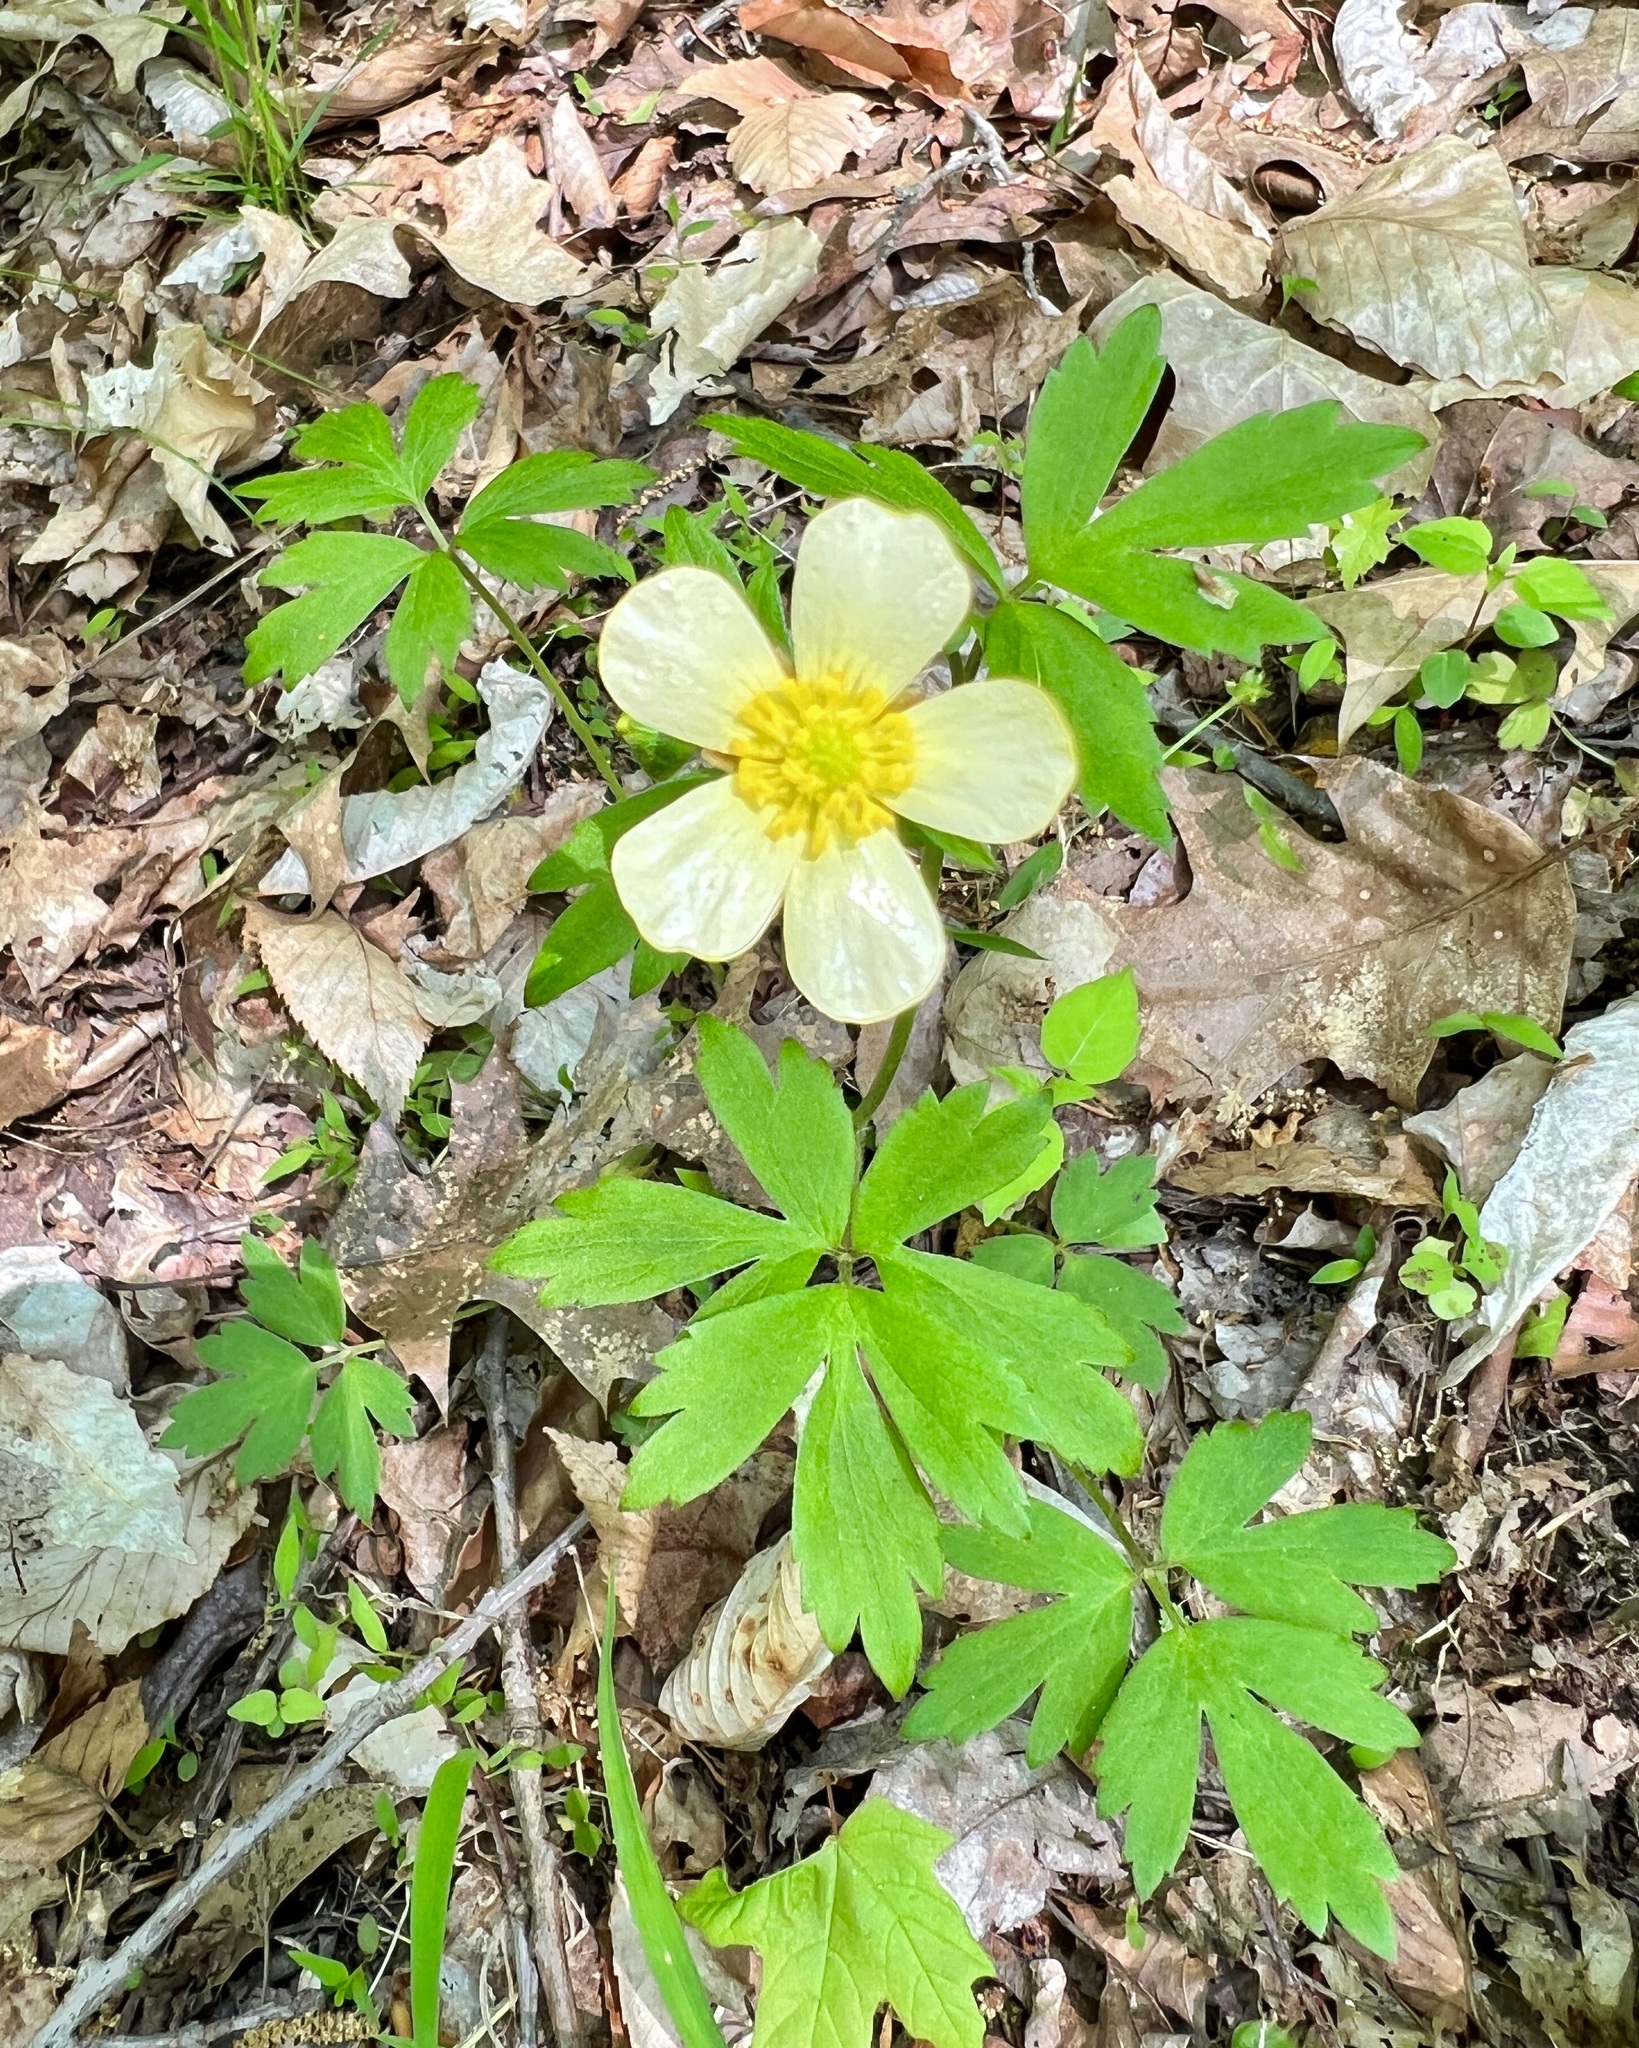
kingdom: Plantae
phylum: Tracheophyta
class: Magnoliopsida
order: Ranunculales
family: Ranunculaceae
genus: Ranunculus
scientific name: Ranunculus hispidus
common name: Bristly buttercup
